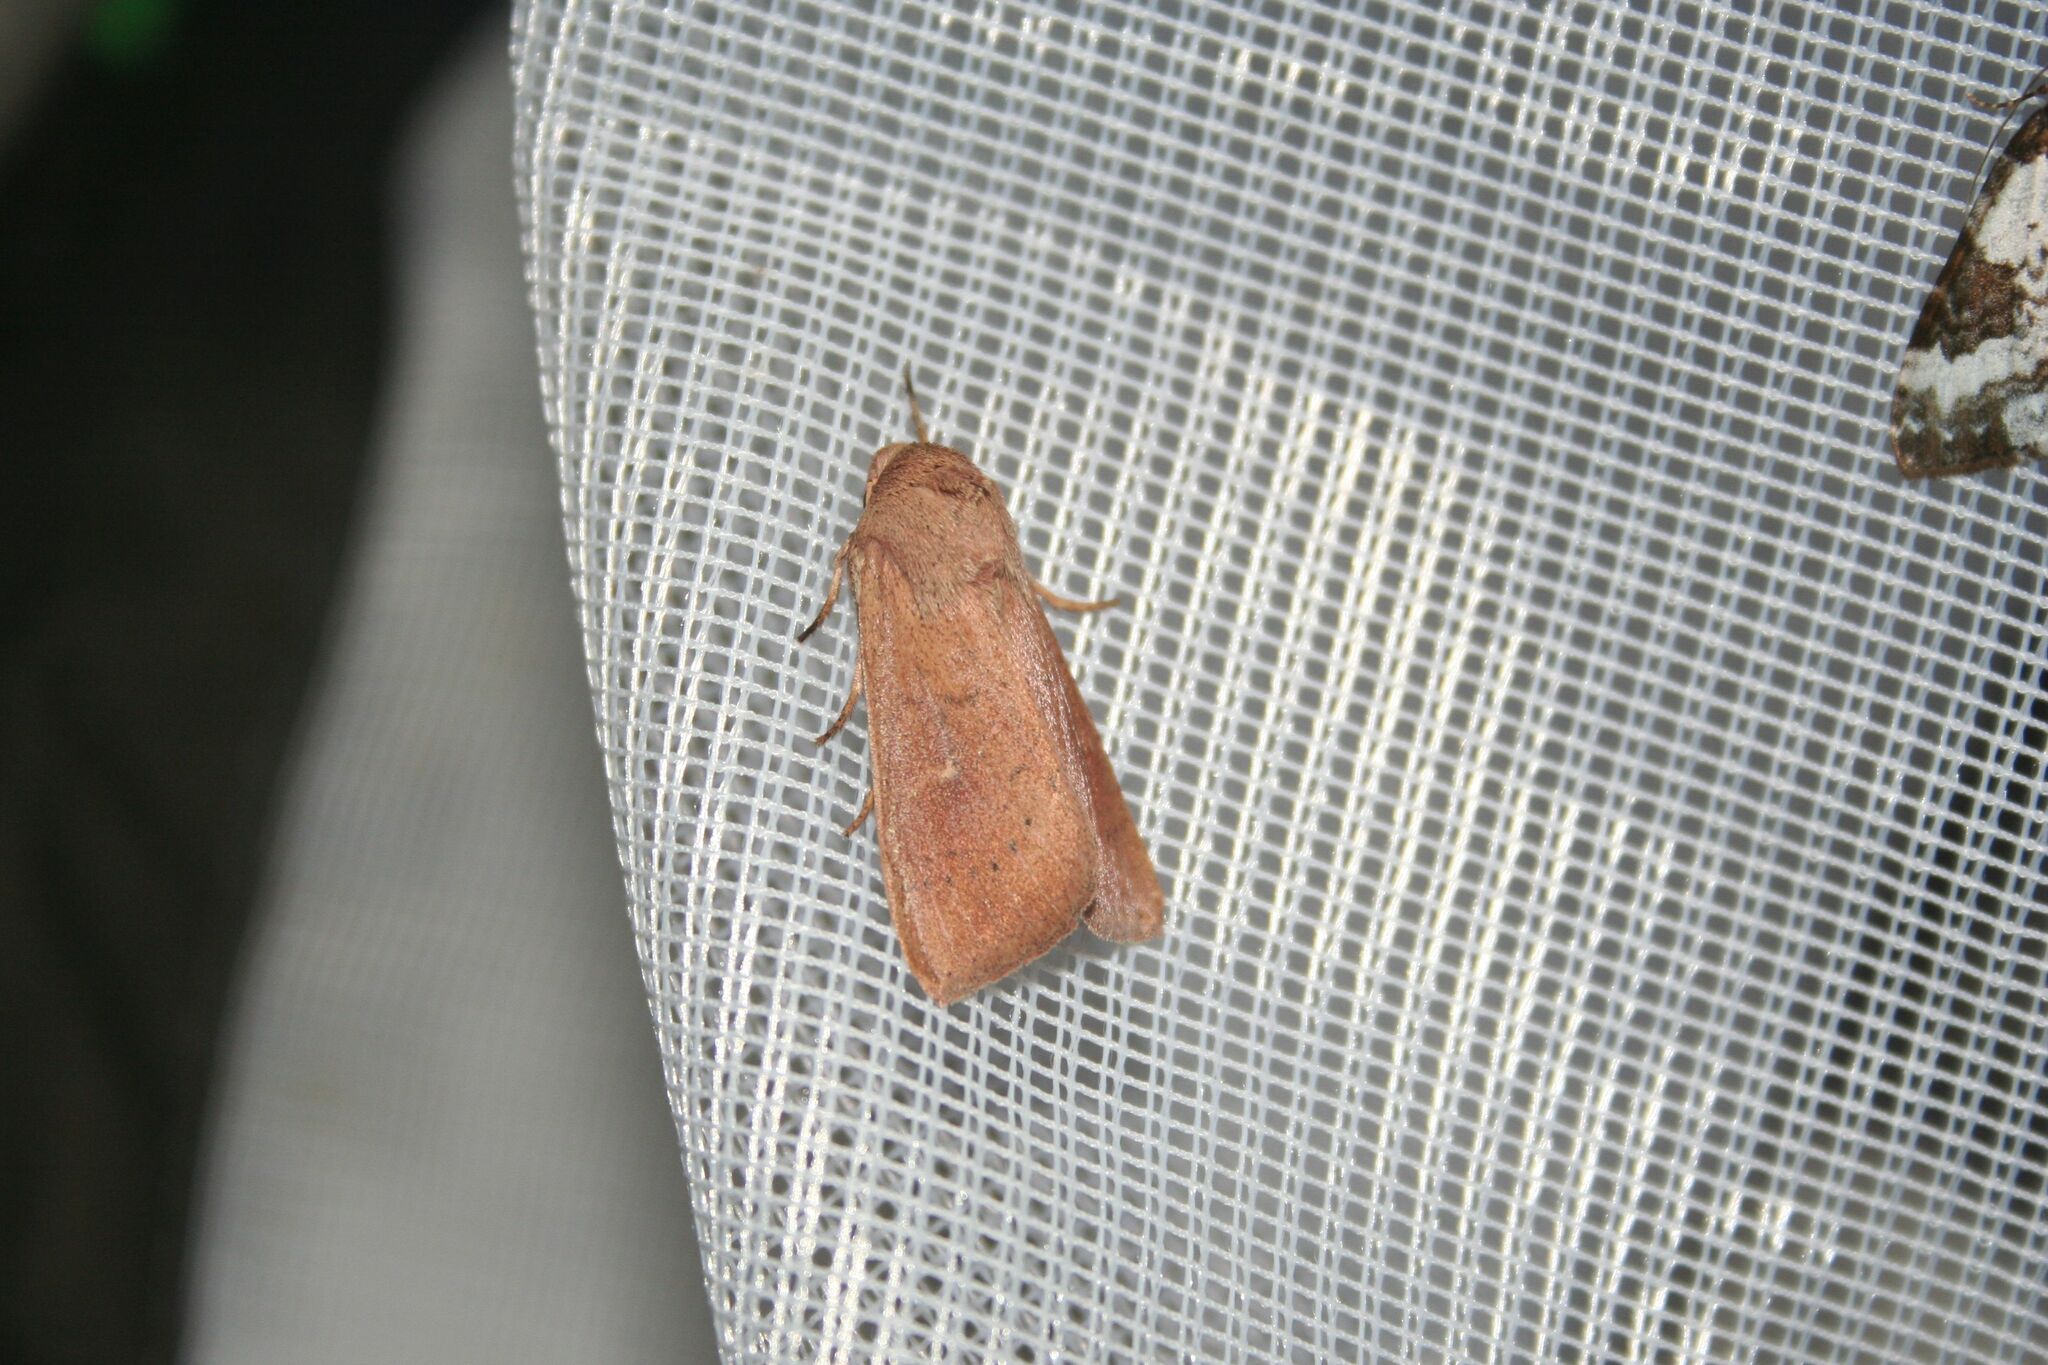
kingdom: Animalia
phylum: Arthropoda
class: Insecta
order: Lepidoptera
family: Noctuidae
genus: Mythimna
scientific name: Mythimna ferrago
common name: Clay
